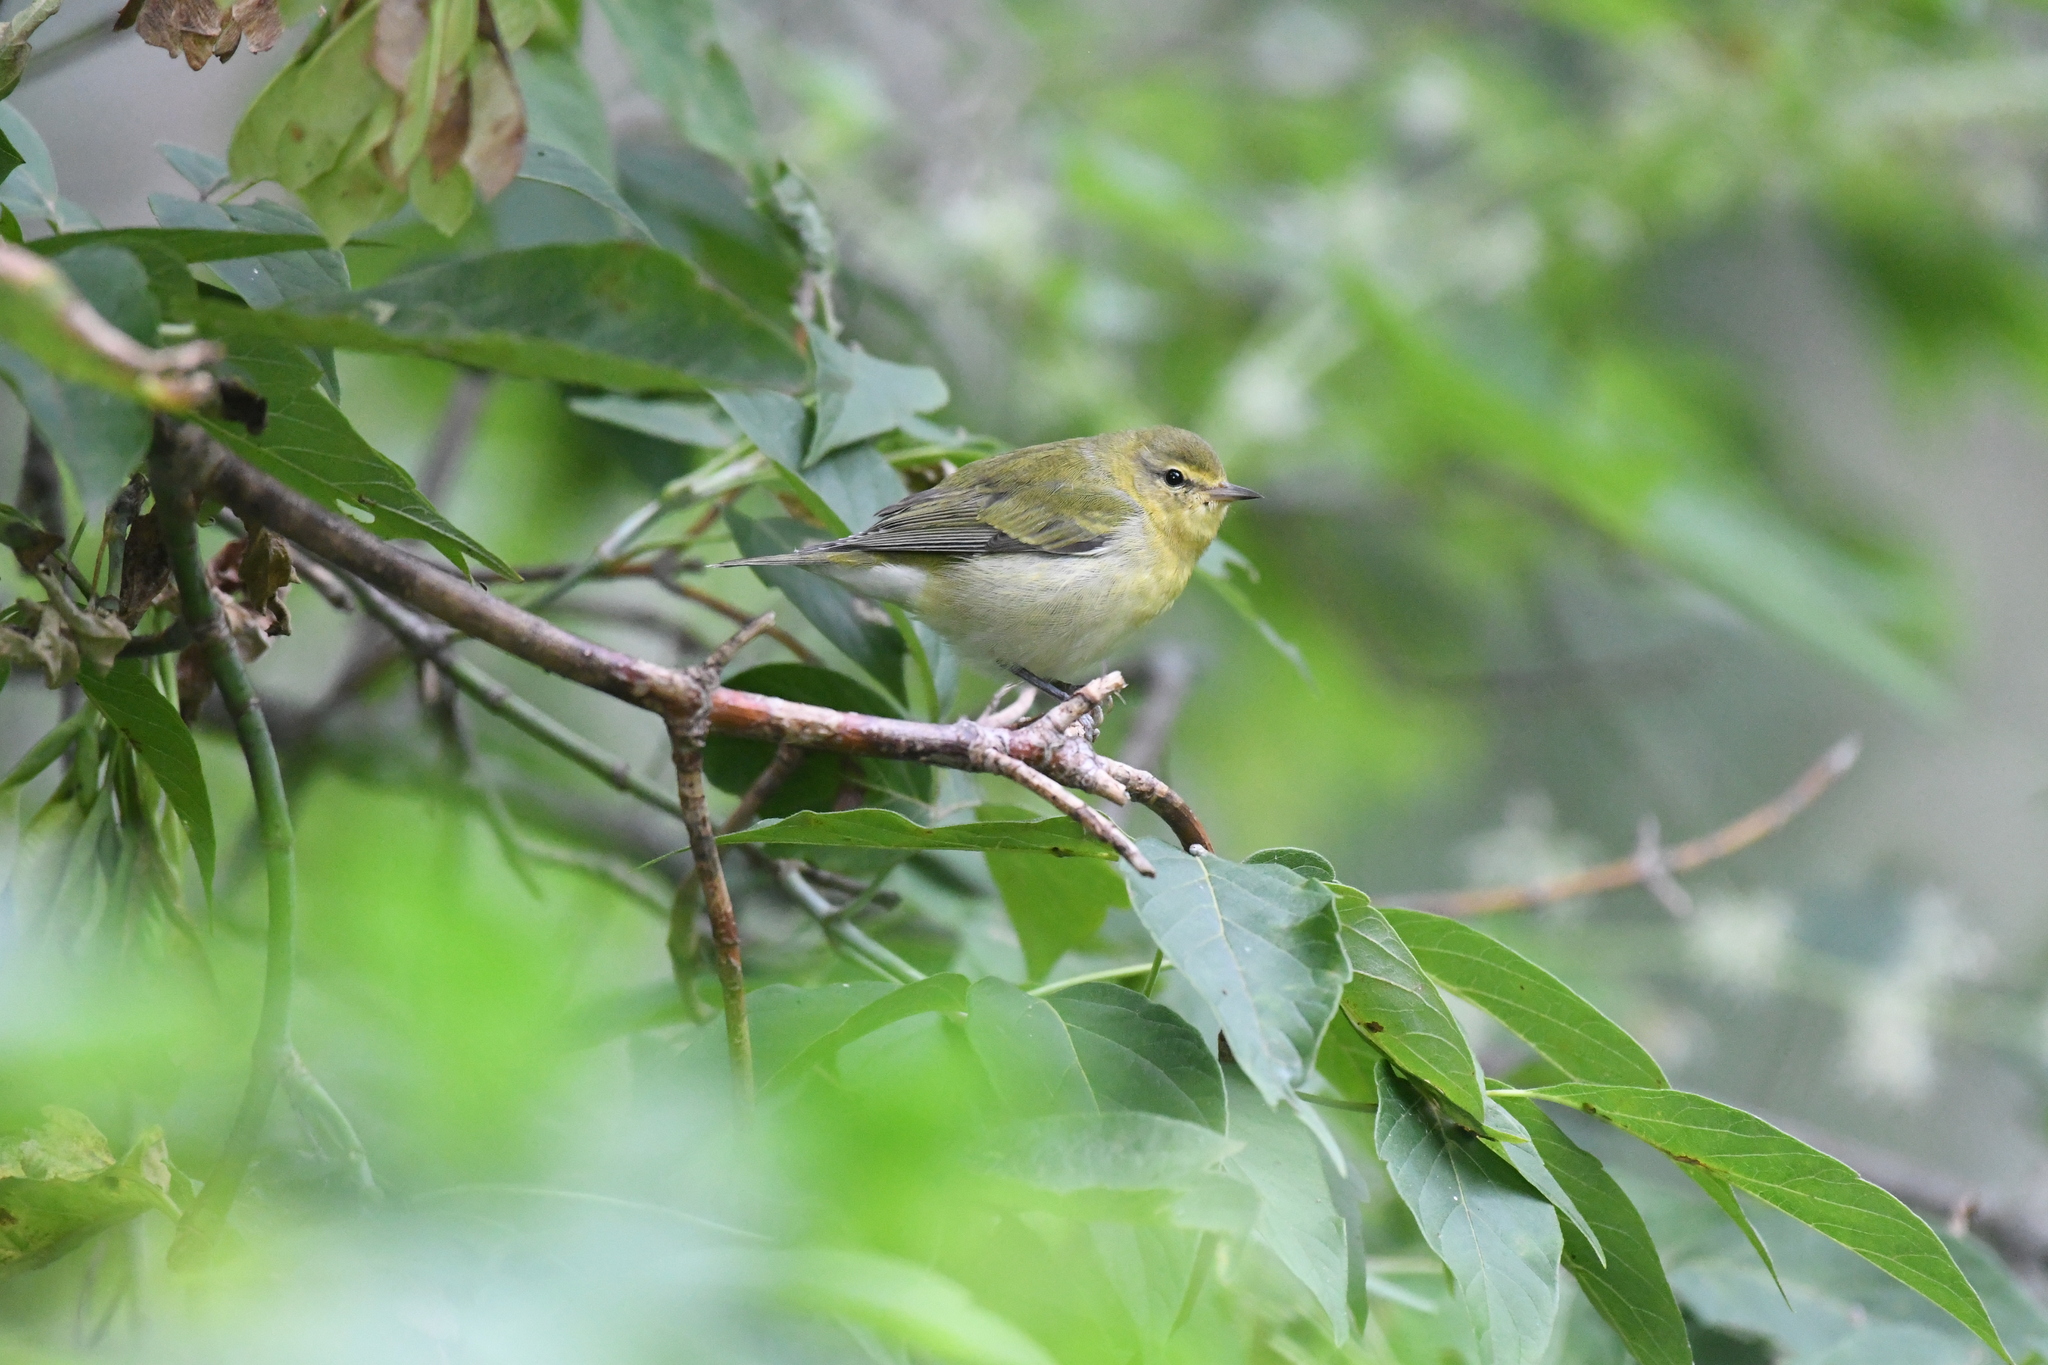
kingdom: Animalia
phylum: Chordata
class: Aves
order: Passeriformes
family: Parulidae
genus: Leiothlypis
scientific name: Leiothlypis peregrina
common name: Tennessee warbler
